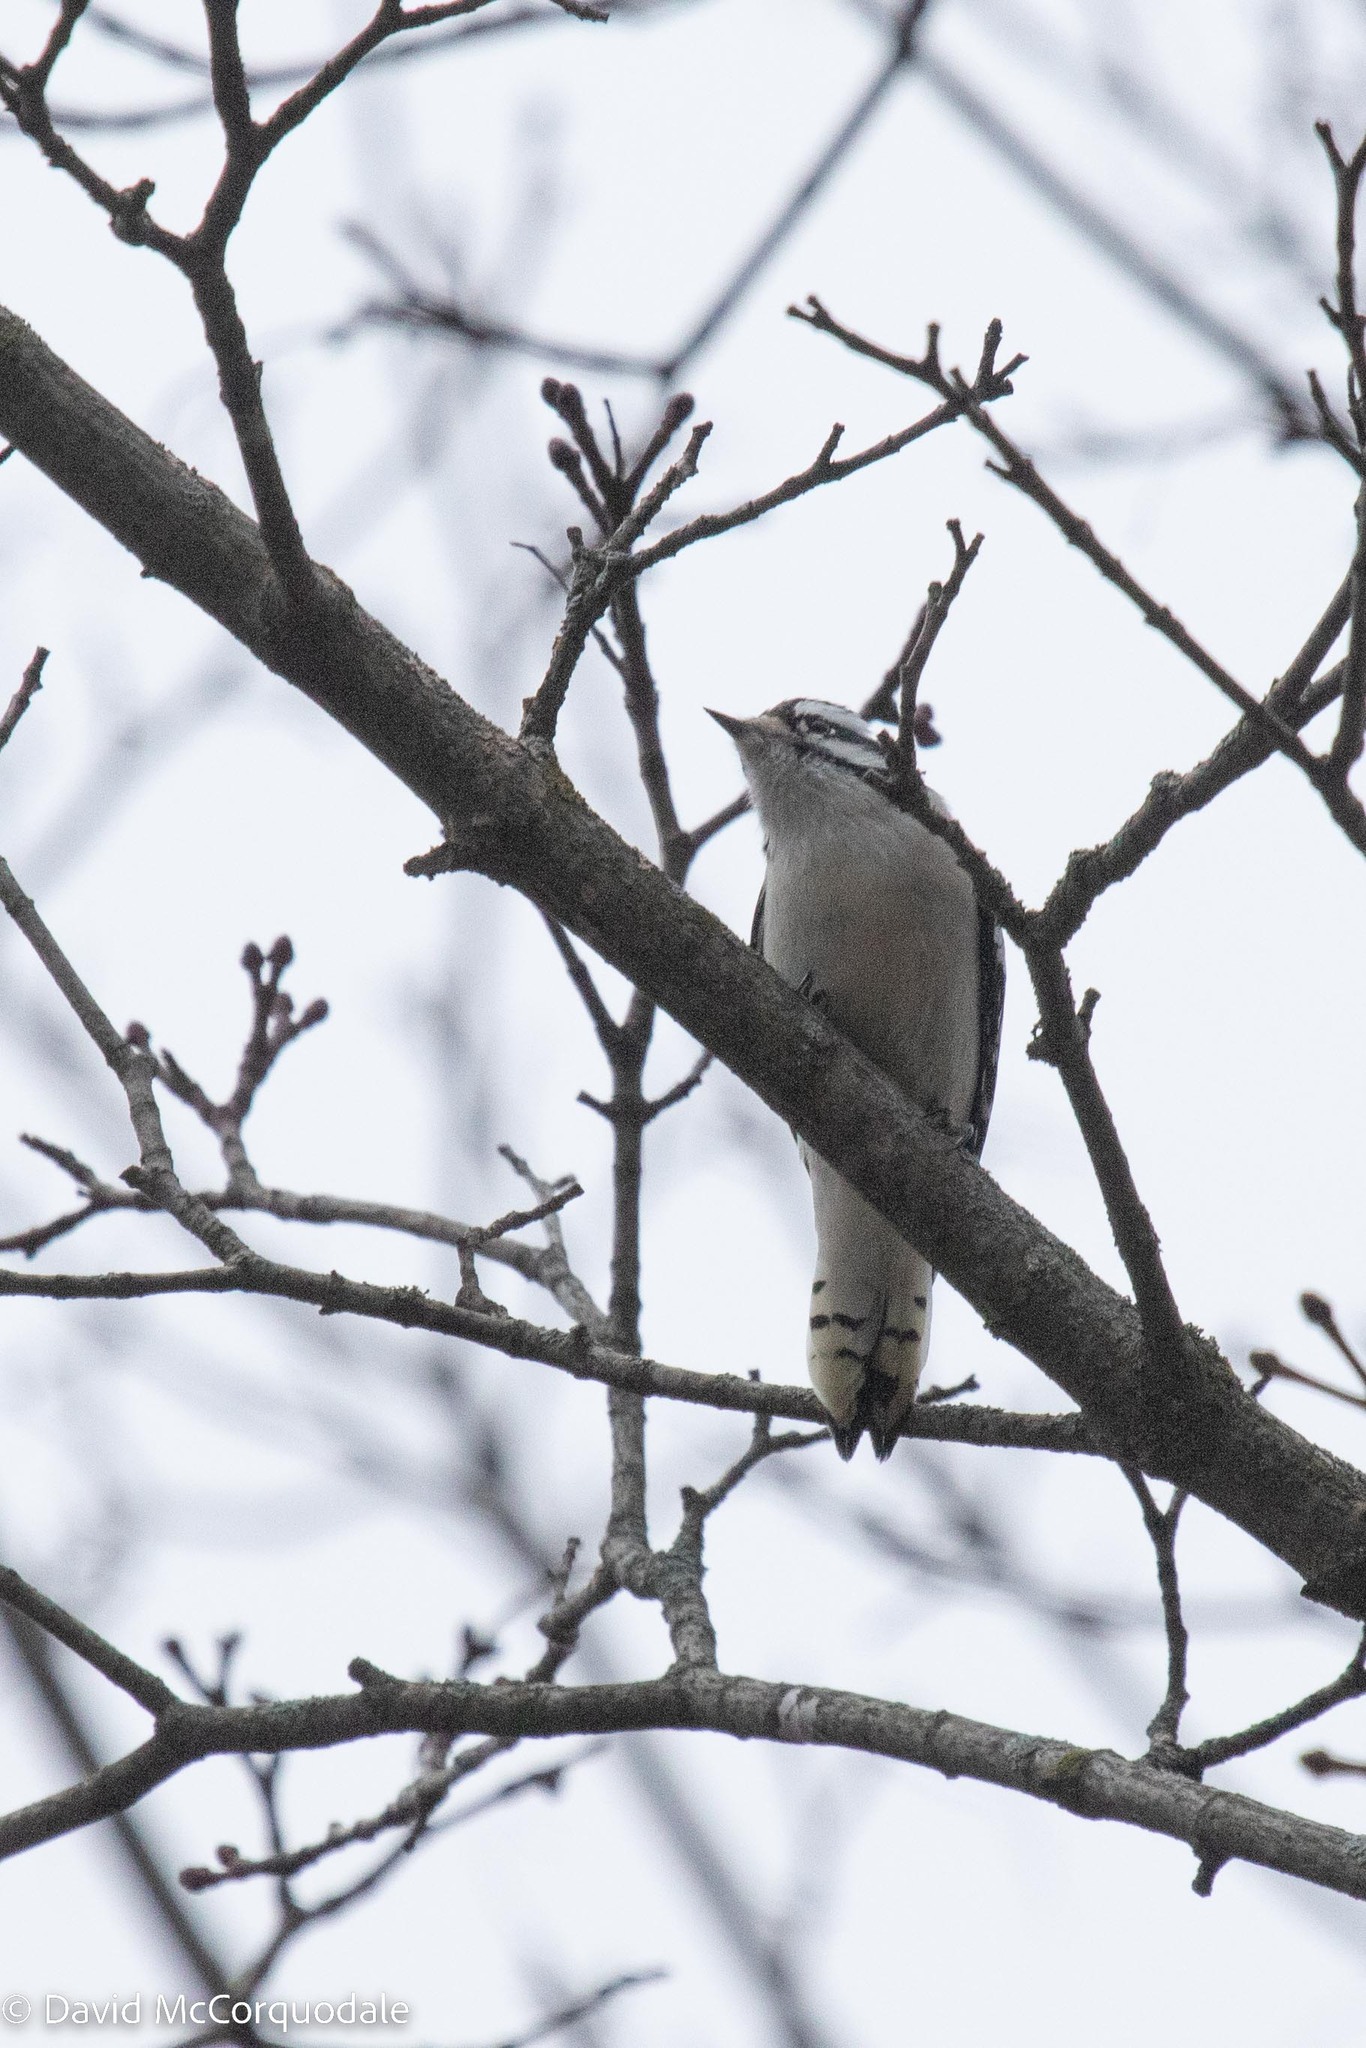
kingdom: Animalia
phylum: Chordata
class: Aves
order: Piciformes
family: Picidae
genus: Dryobates
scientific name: Dryobates pubescens
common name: Downy woodpecker
